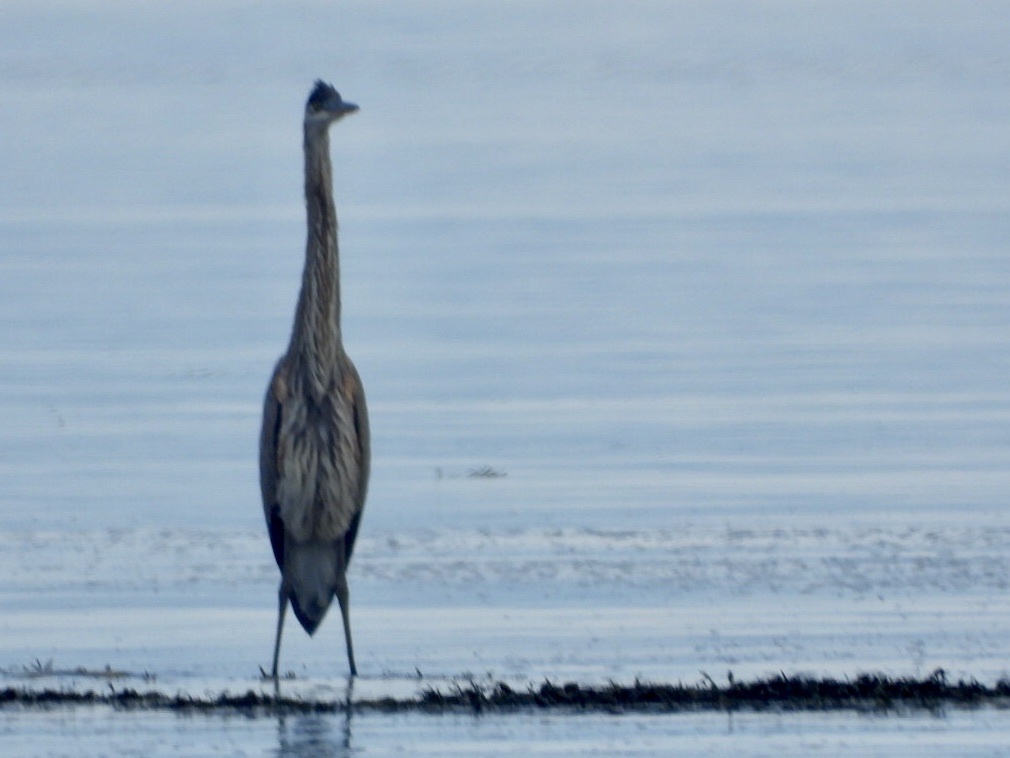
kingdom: Animalia
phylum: Chordata
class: Aves
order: Pelecaniformes
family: Ardeidae
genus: Ardea
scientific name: Ardea herodias
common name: Great blue heron
